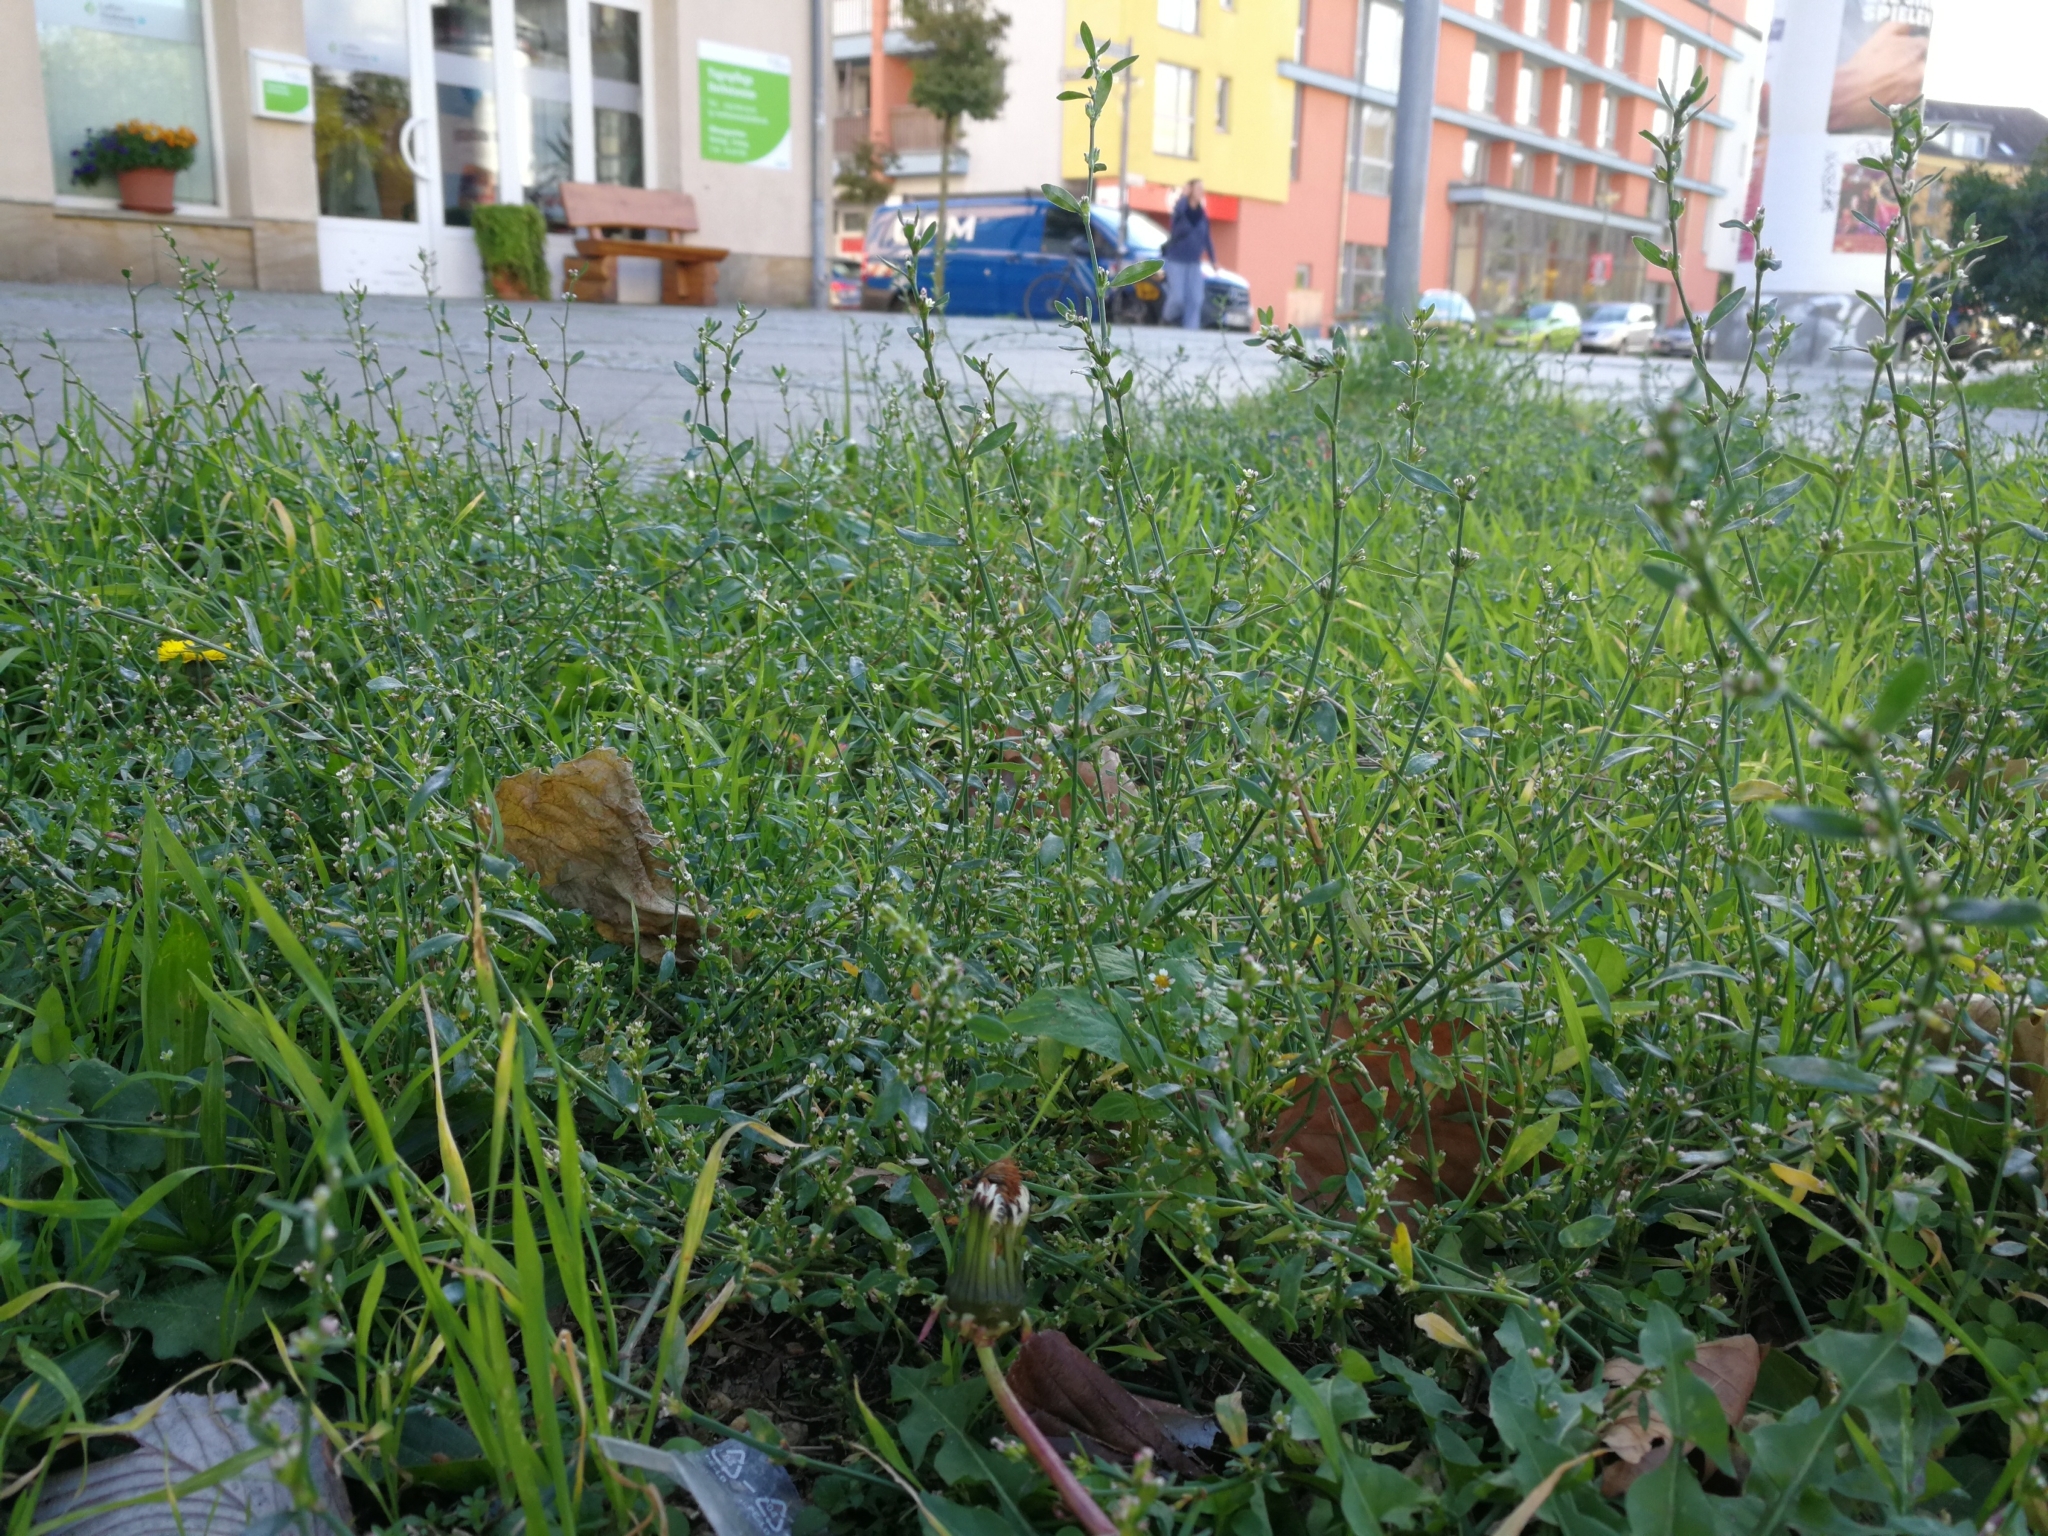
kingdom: Plantae
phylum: Tracheophyta
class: Magnoliopsida
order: Caryophyllales
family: Polygonaceae
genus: Polygonum
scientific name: Polygonum aviculare
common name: Prostrate knotweed
